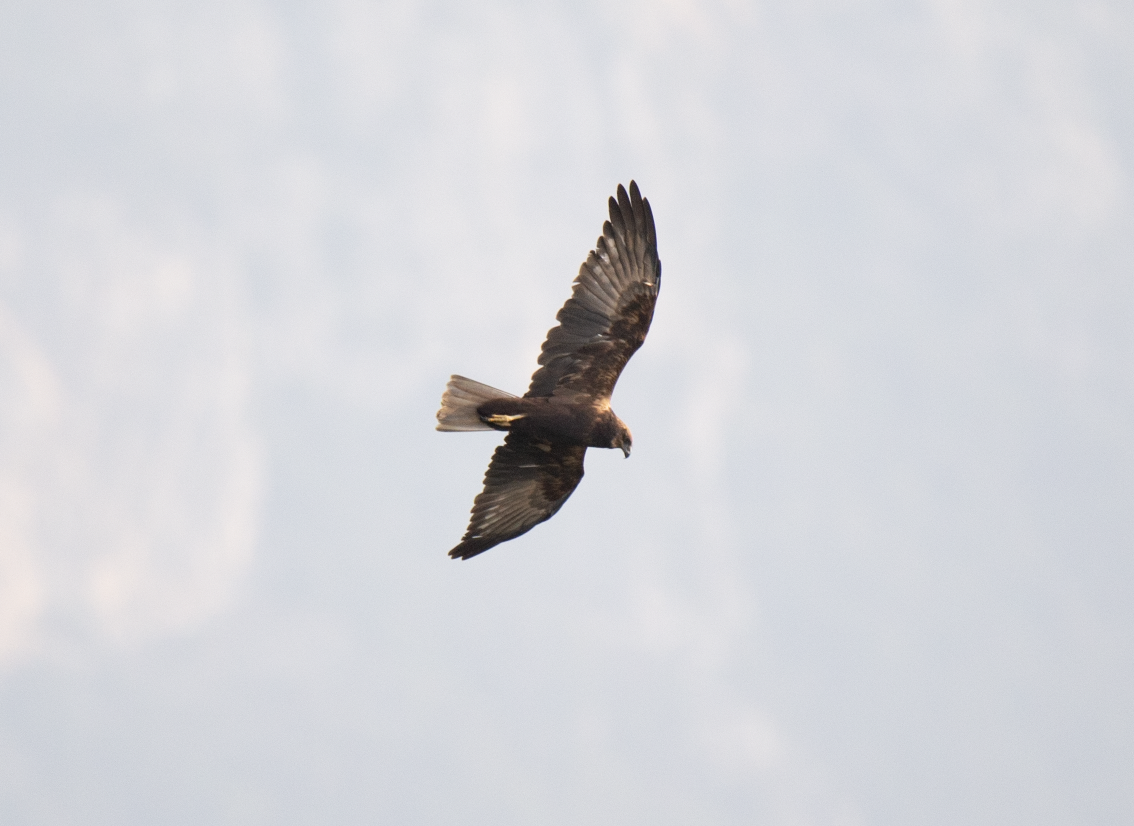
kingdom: Animalia
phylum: Chordata
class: Aves
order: Accipitriformes
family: Accipitridae
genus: Circus
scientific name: Circus aeruginosus
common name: Western marsh harrier
